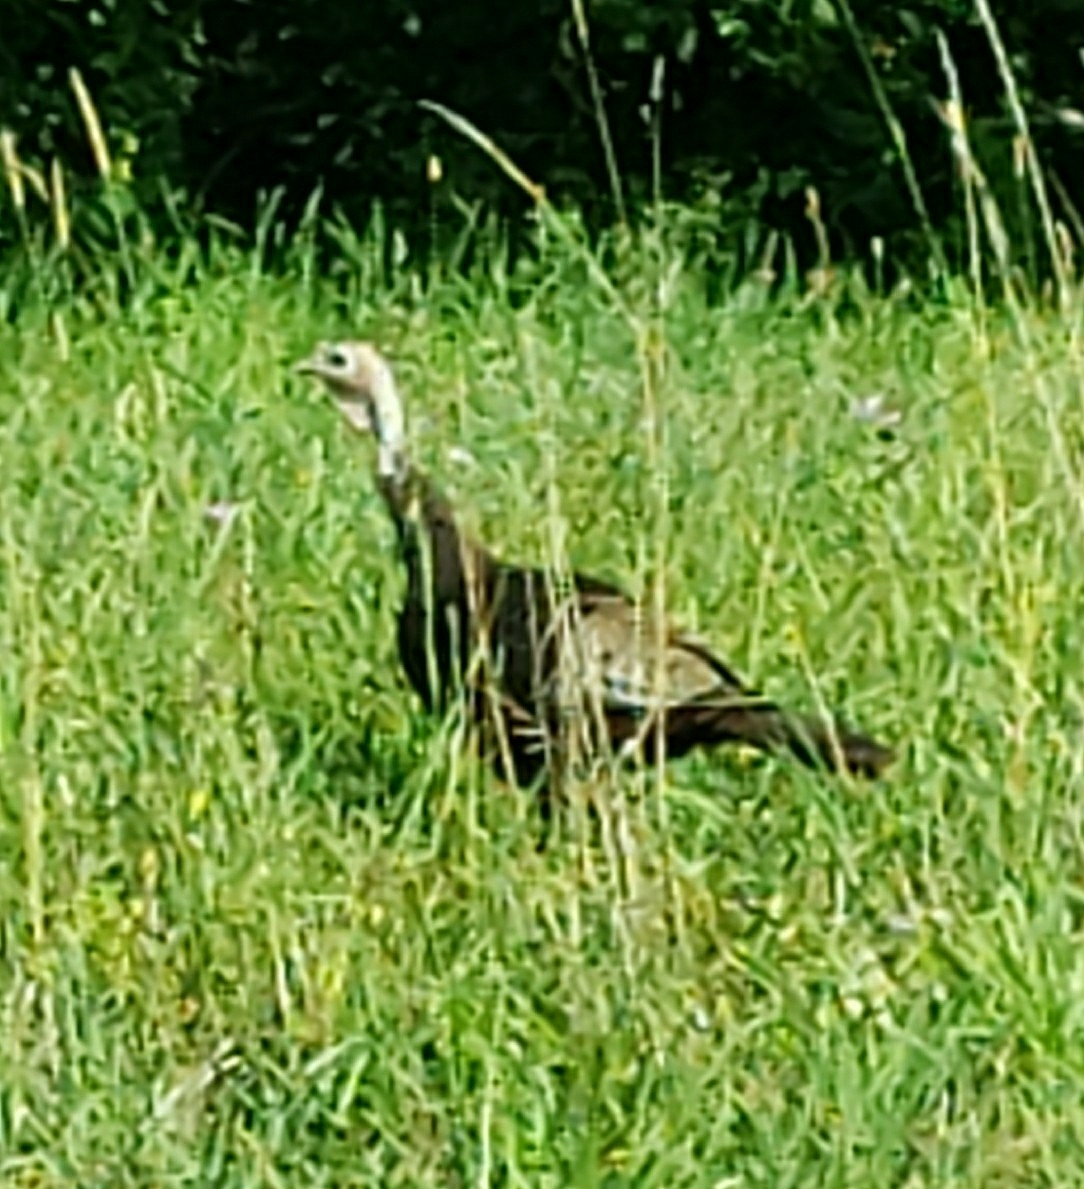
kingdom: Animalia
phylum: Chordata
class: Aves
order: Galliformes
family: Phasianidae
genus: Meleagris
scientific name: Meleagris gallopavo
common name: Wild turkey
